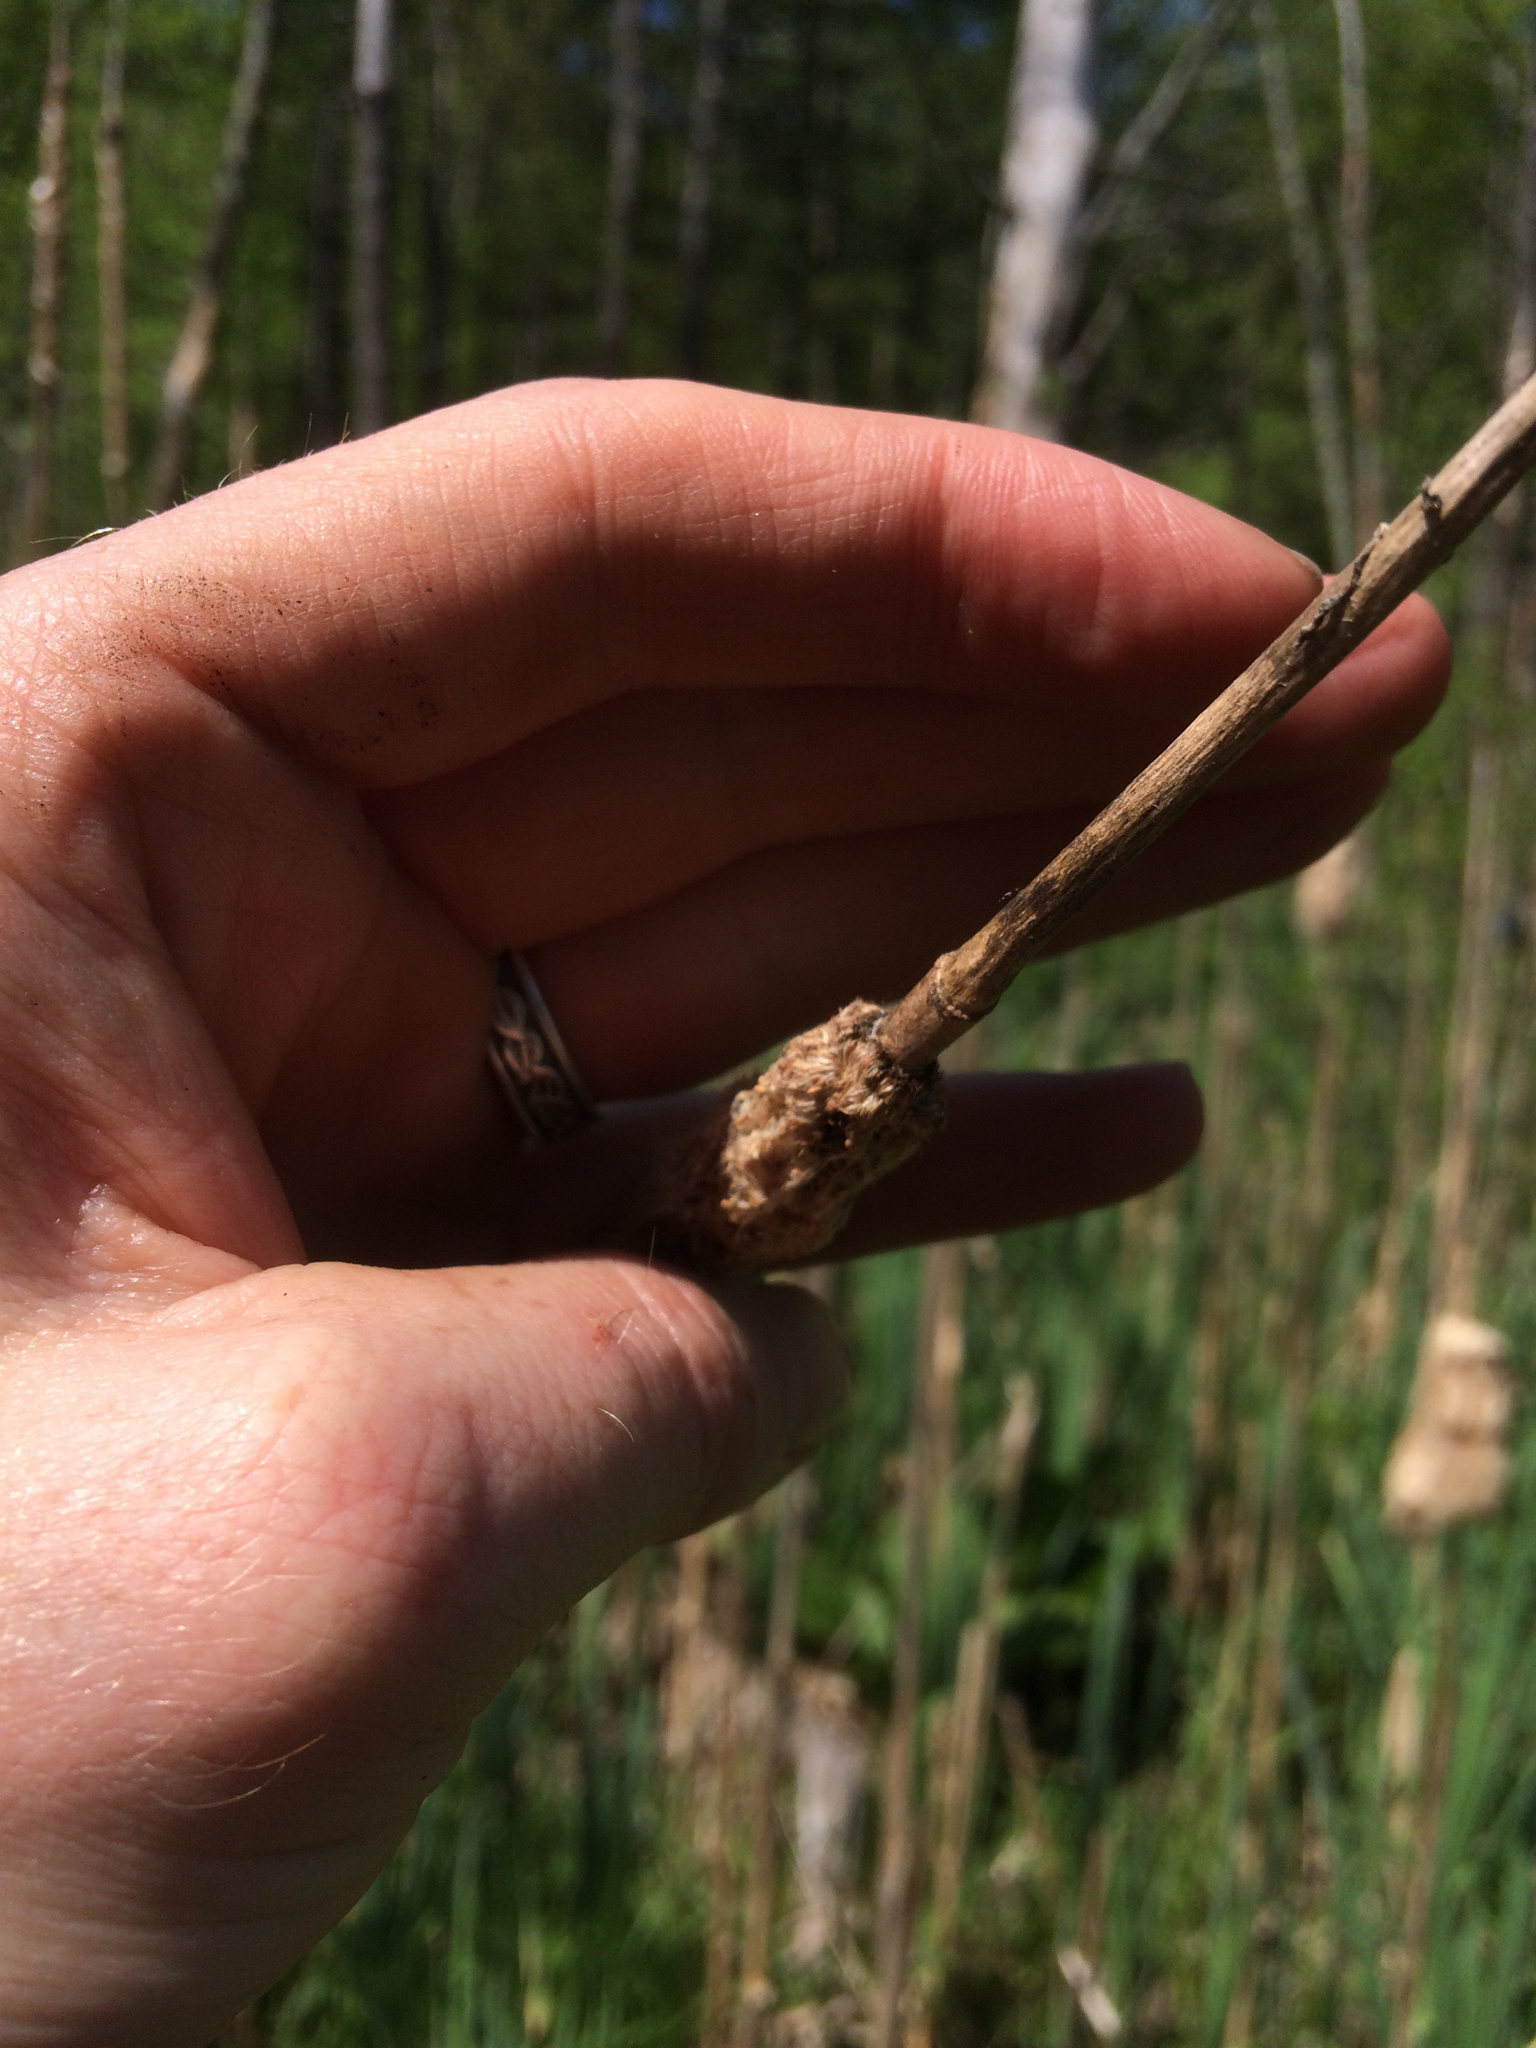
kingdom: Plantae
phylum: Tracheophyta
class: Liliopsida
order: Poales
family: Typhaceae
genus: Typha
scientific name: Typha angustifolia
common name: Lesser bulrush
